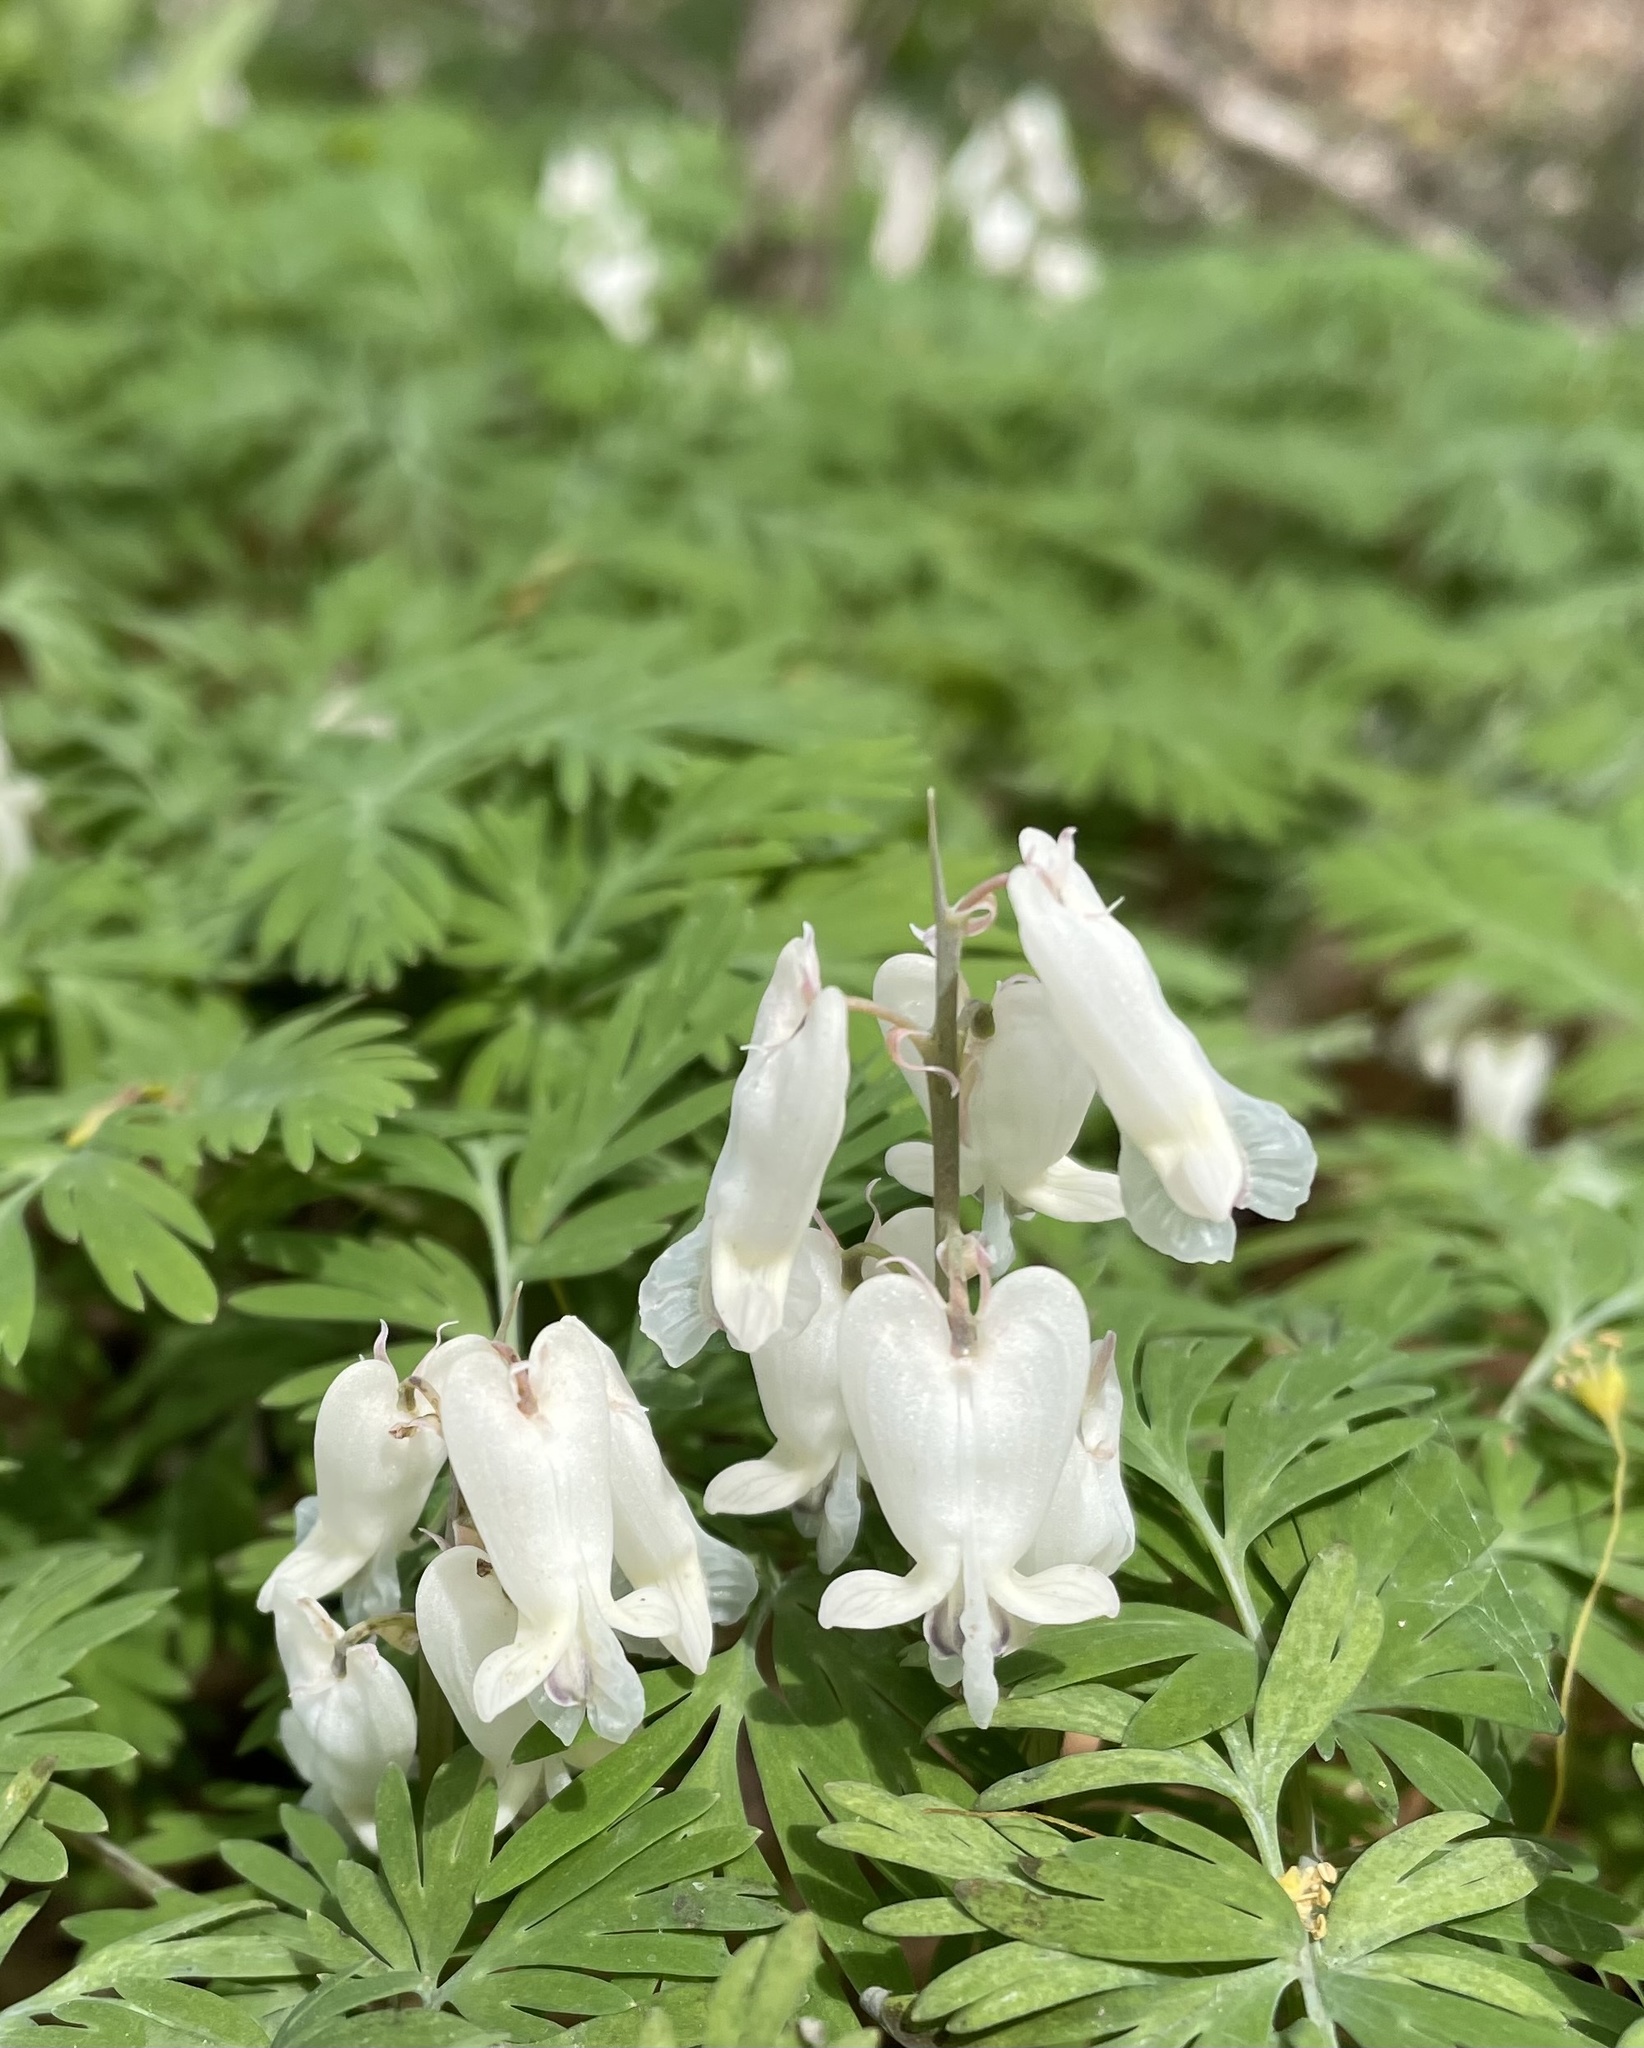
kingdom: Plantae
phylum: Tracheophyta
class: Magnoliopsida
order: Ranunculales
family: Papaveraceae
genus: Dicentra
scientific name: Dicentra canadensis
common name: Squirrel-corn
